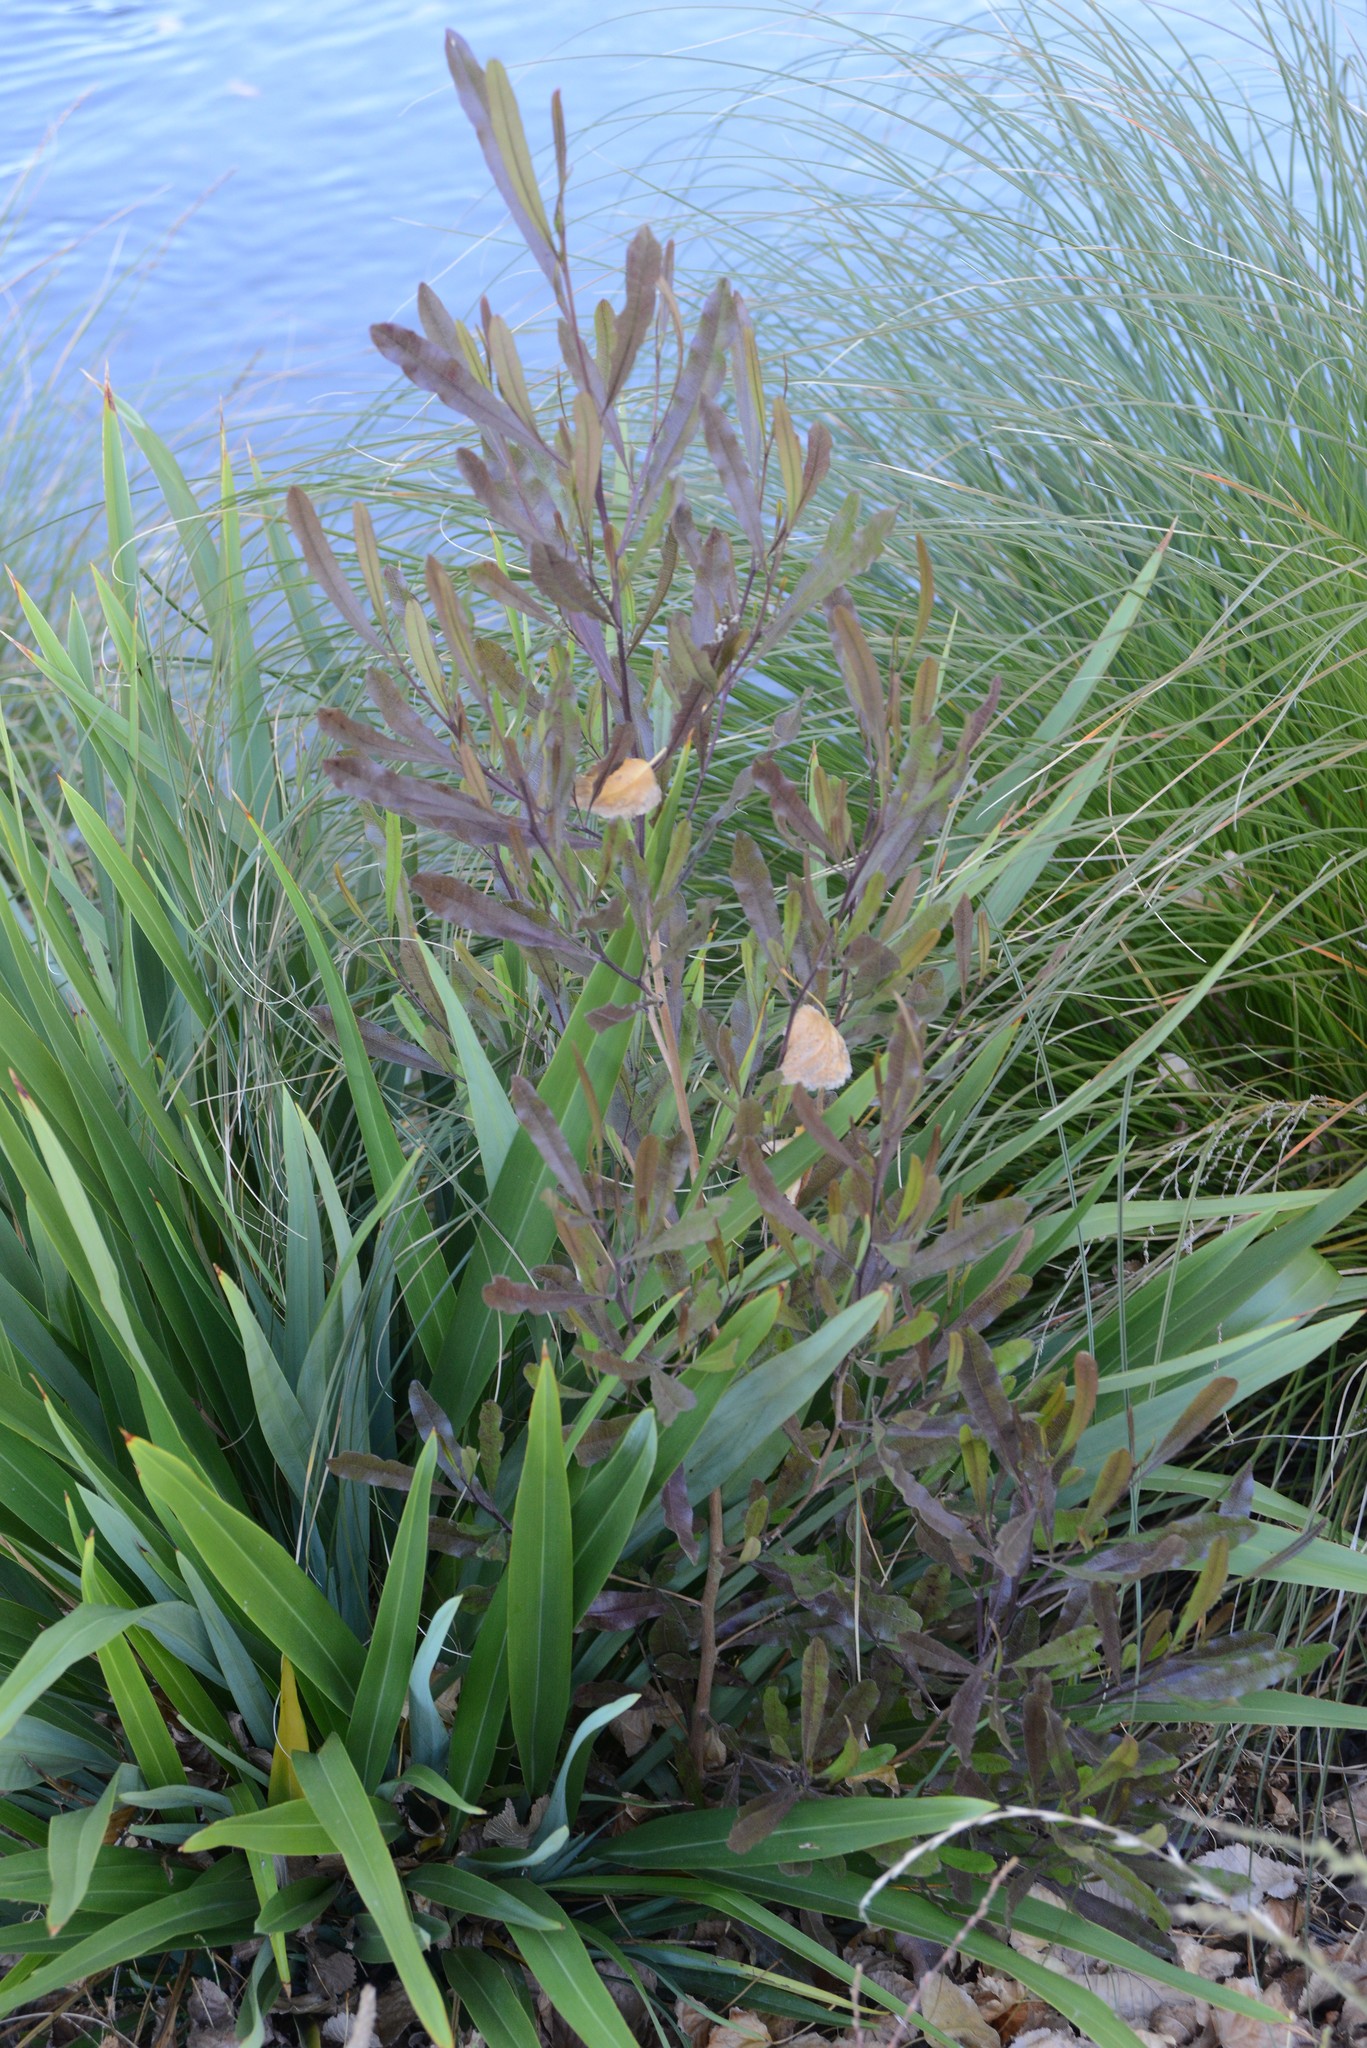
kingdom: Plantae
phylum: Tracheophyta
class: Magnoliopsida
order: Sapindales
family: Sapindaceae
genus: Dodonaea
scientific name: Dodonaea viscosa
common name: Hopbush
